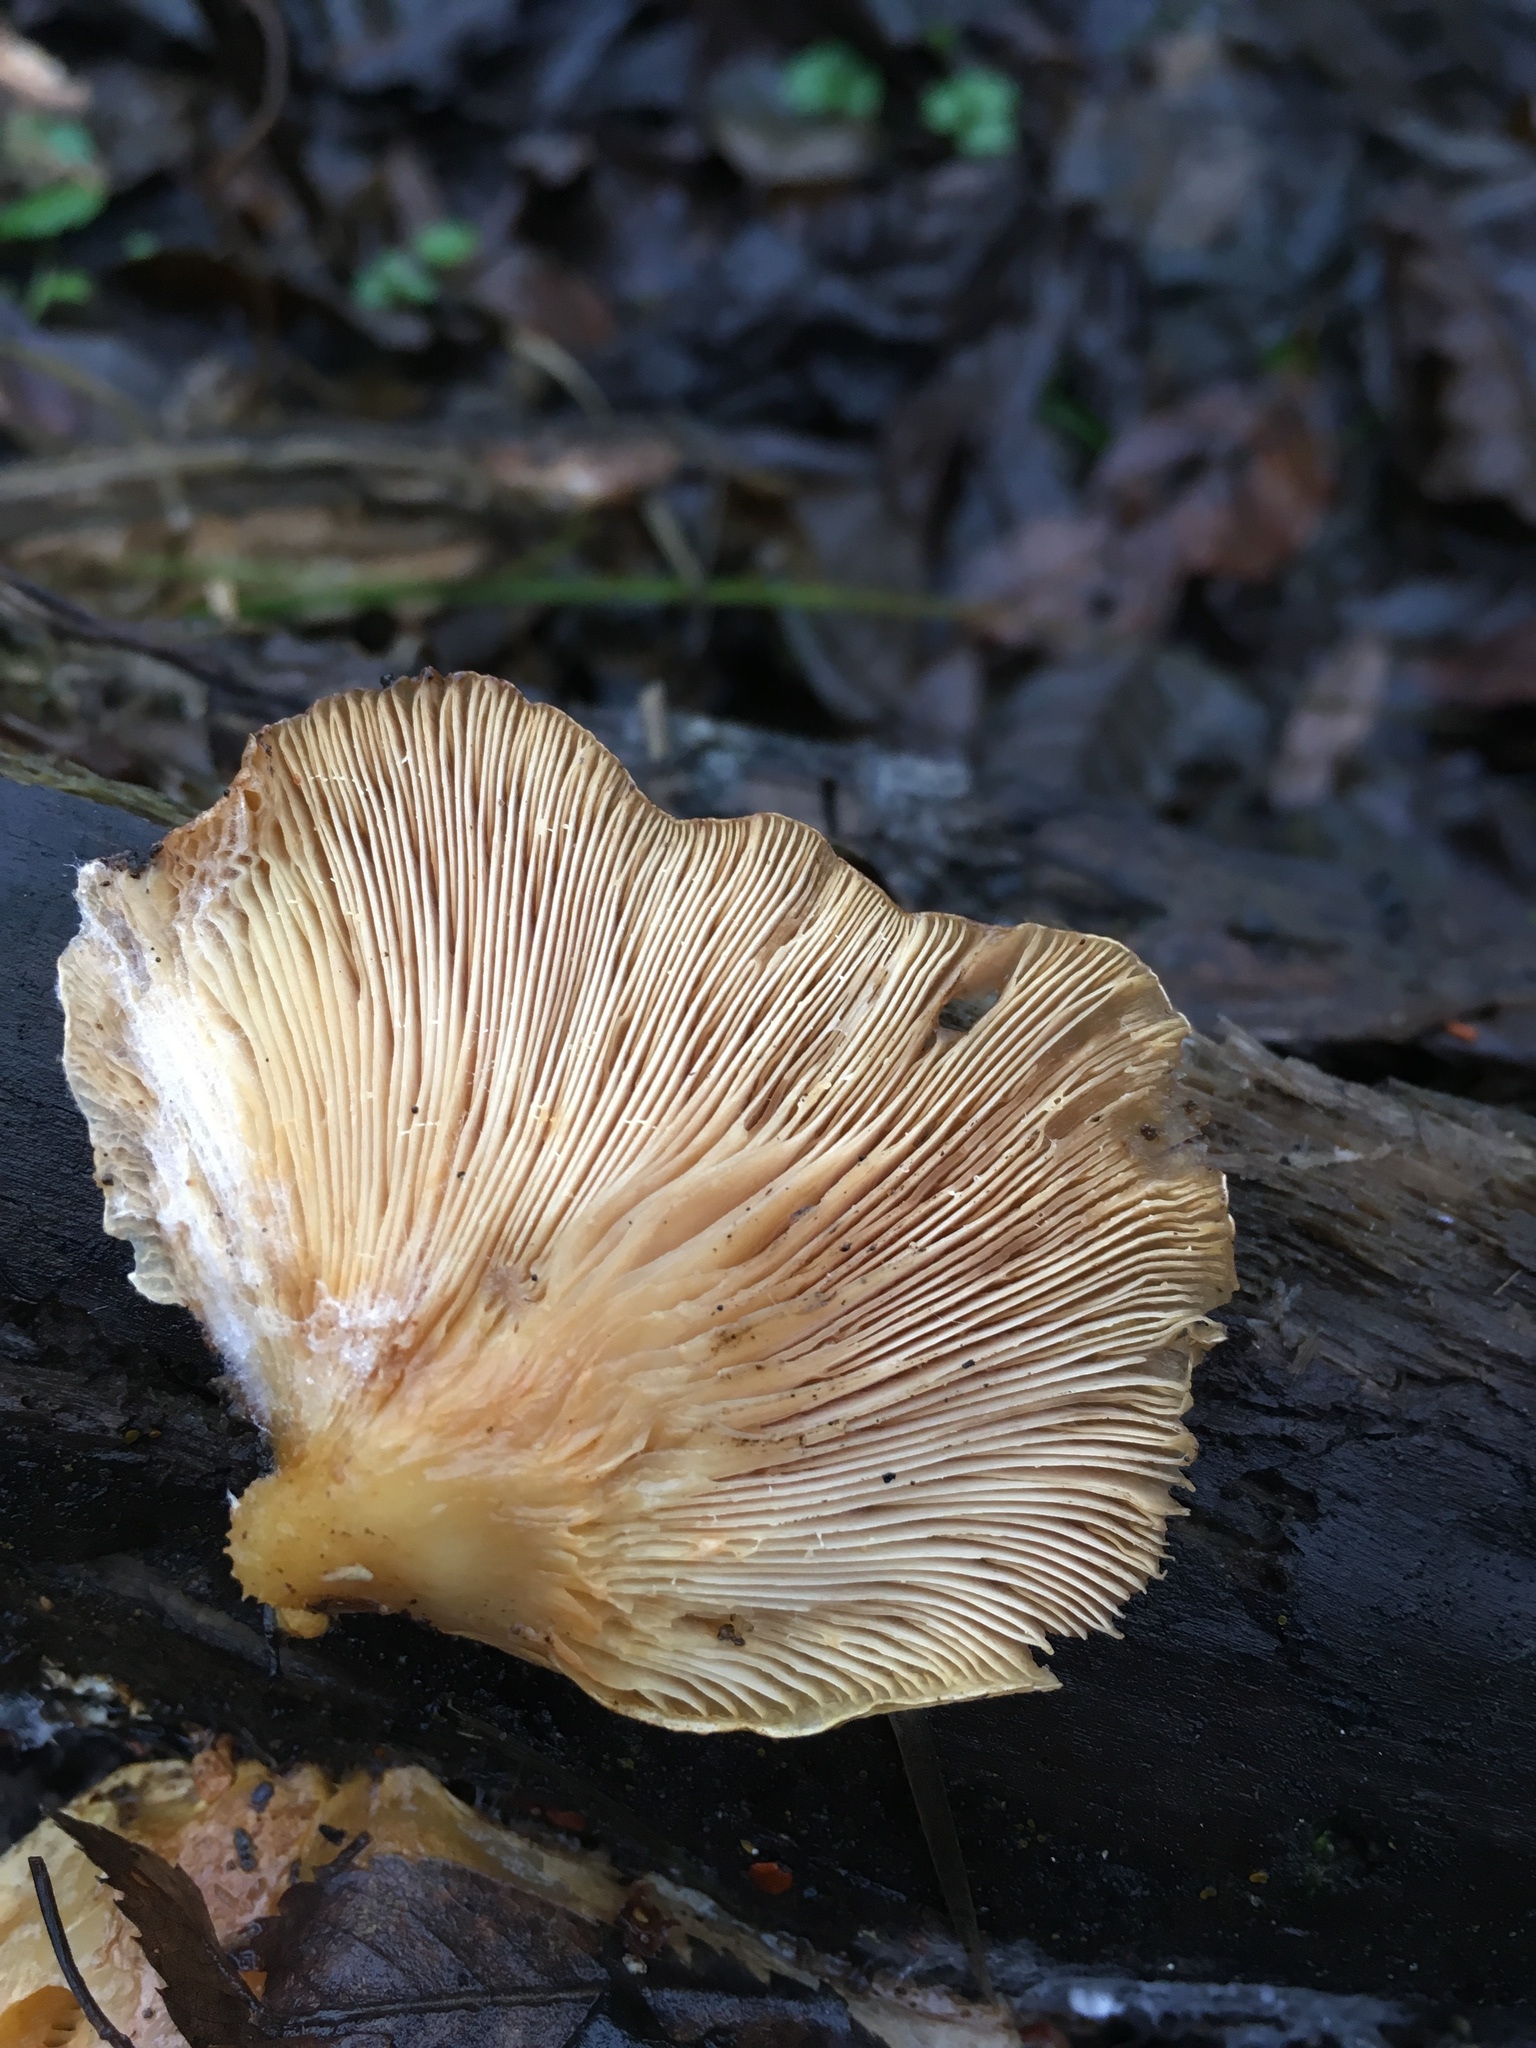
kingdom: Fungi
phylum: Basidiomycota
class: Agaricomycetes
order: Agaricales
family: Phyllotopsidaceae
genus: Phyllotopsis
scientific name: Phyllotopsis nidulans
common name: Orange mock oyster
